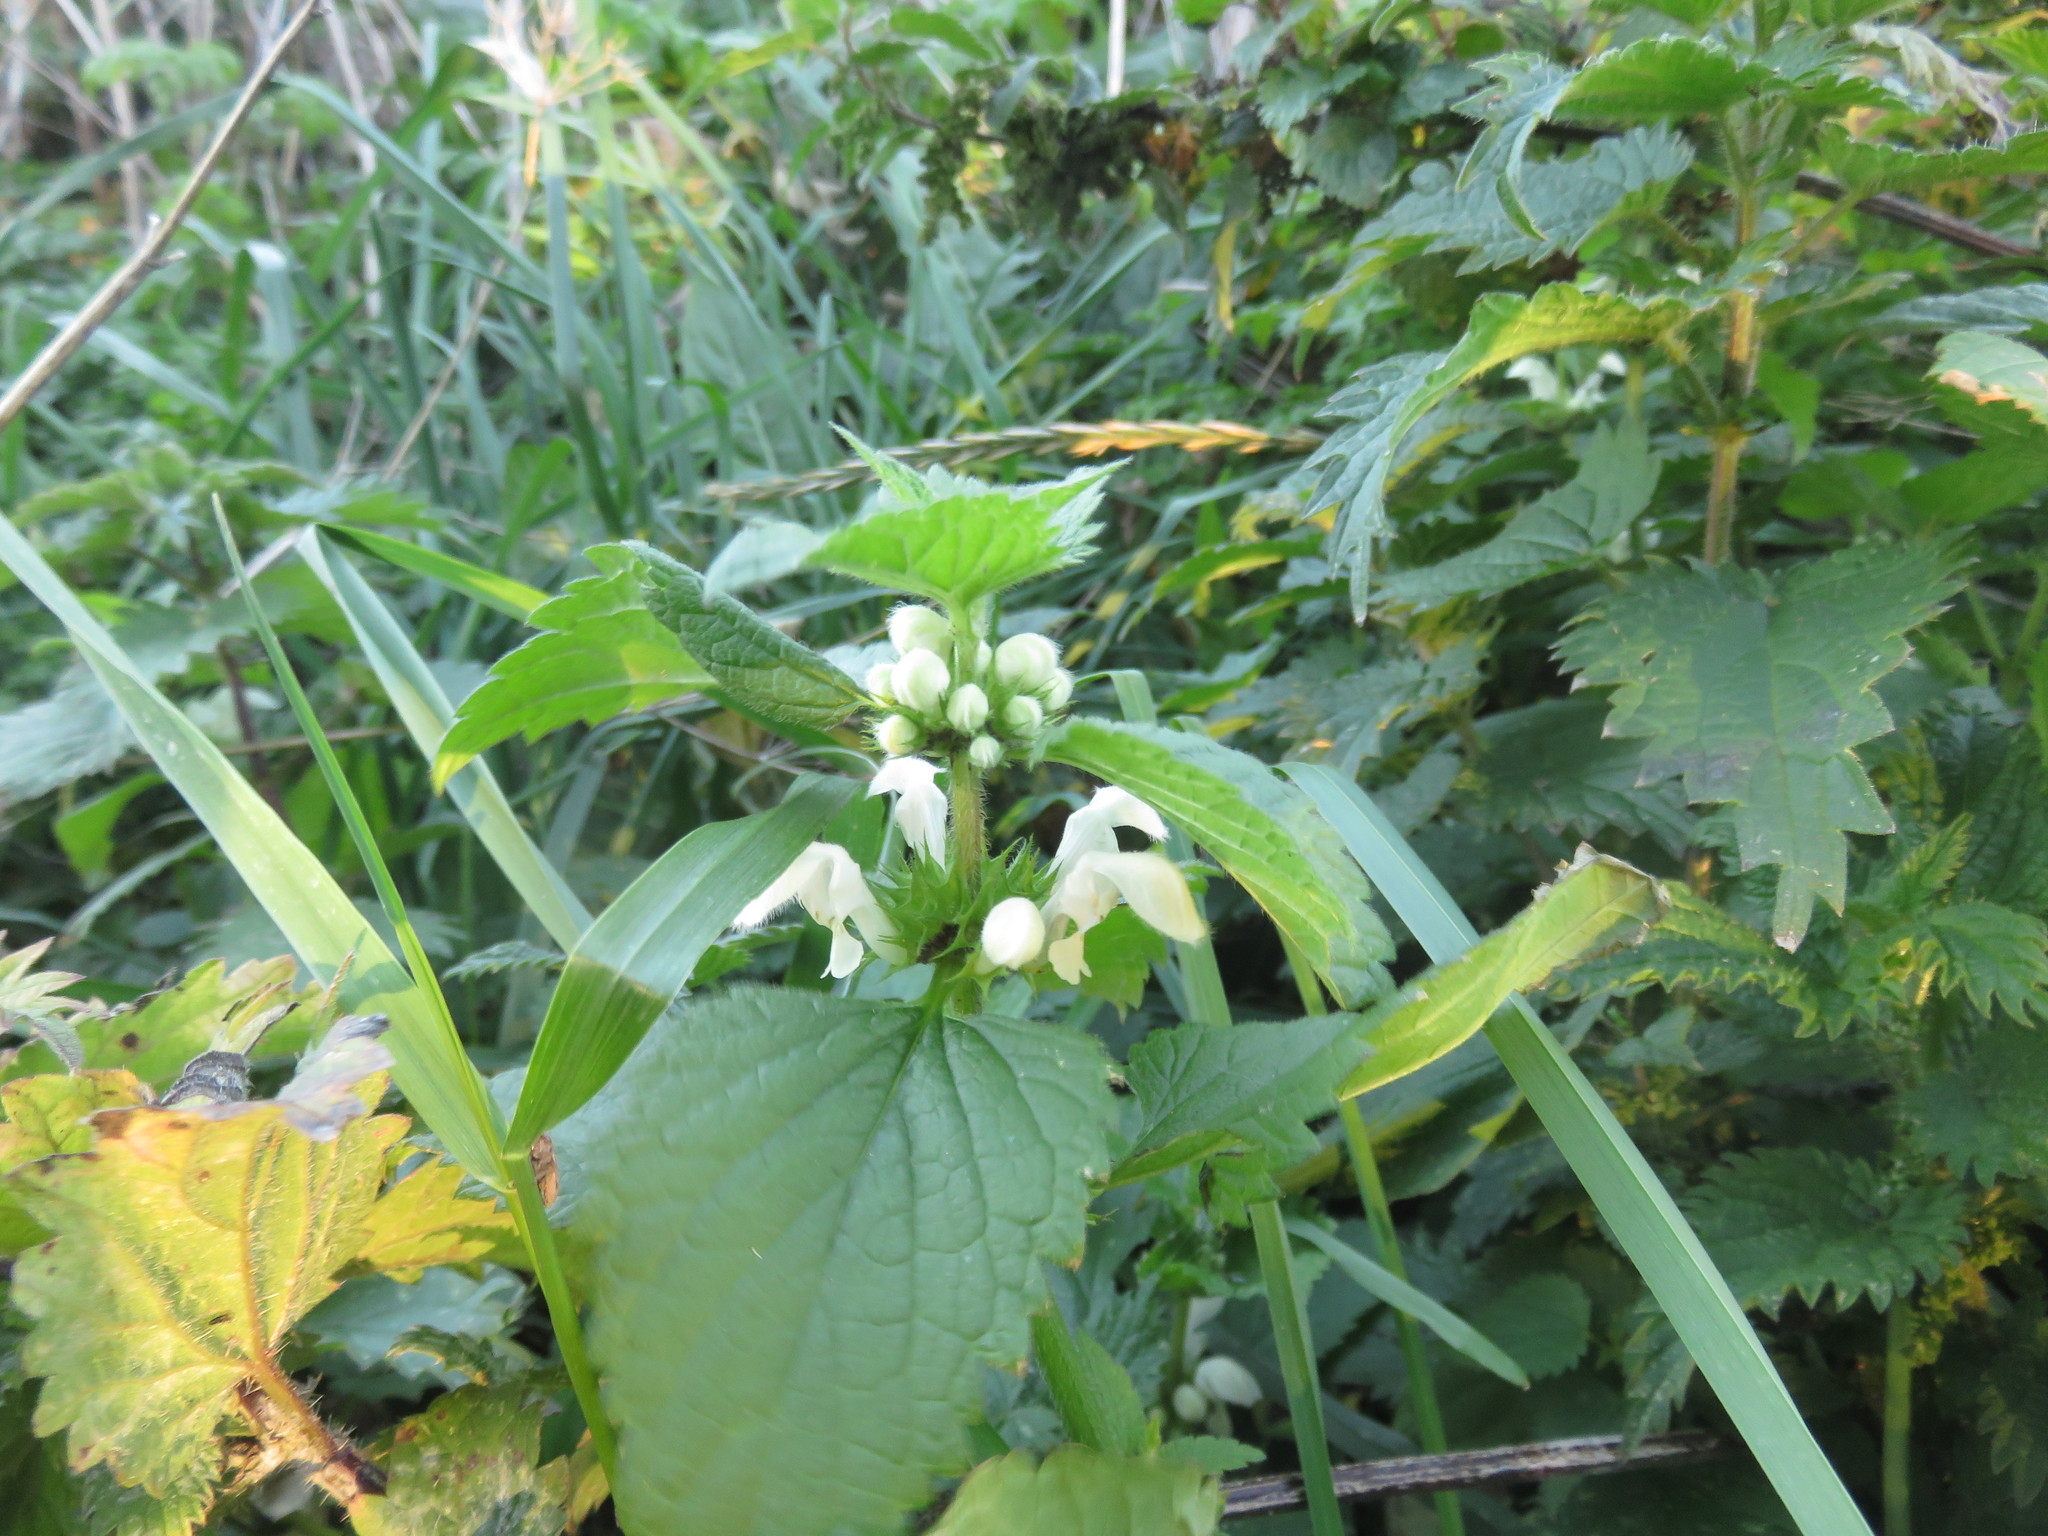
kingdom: Plantae
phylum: Tracheophyta
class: Magnoliopsida
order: Lamiales
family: Lamiaceae
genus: Lamium
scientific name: Lamium album
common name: White dead-nettle
